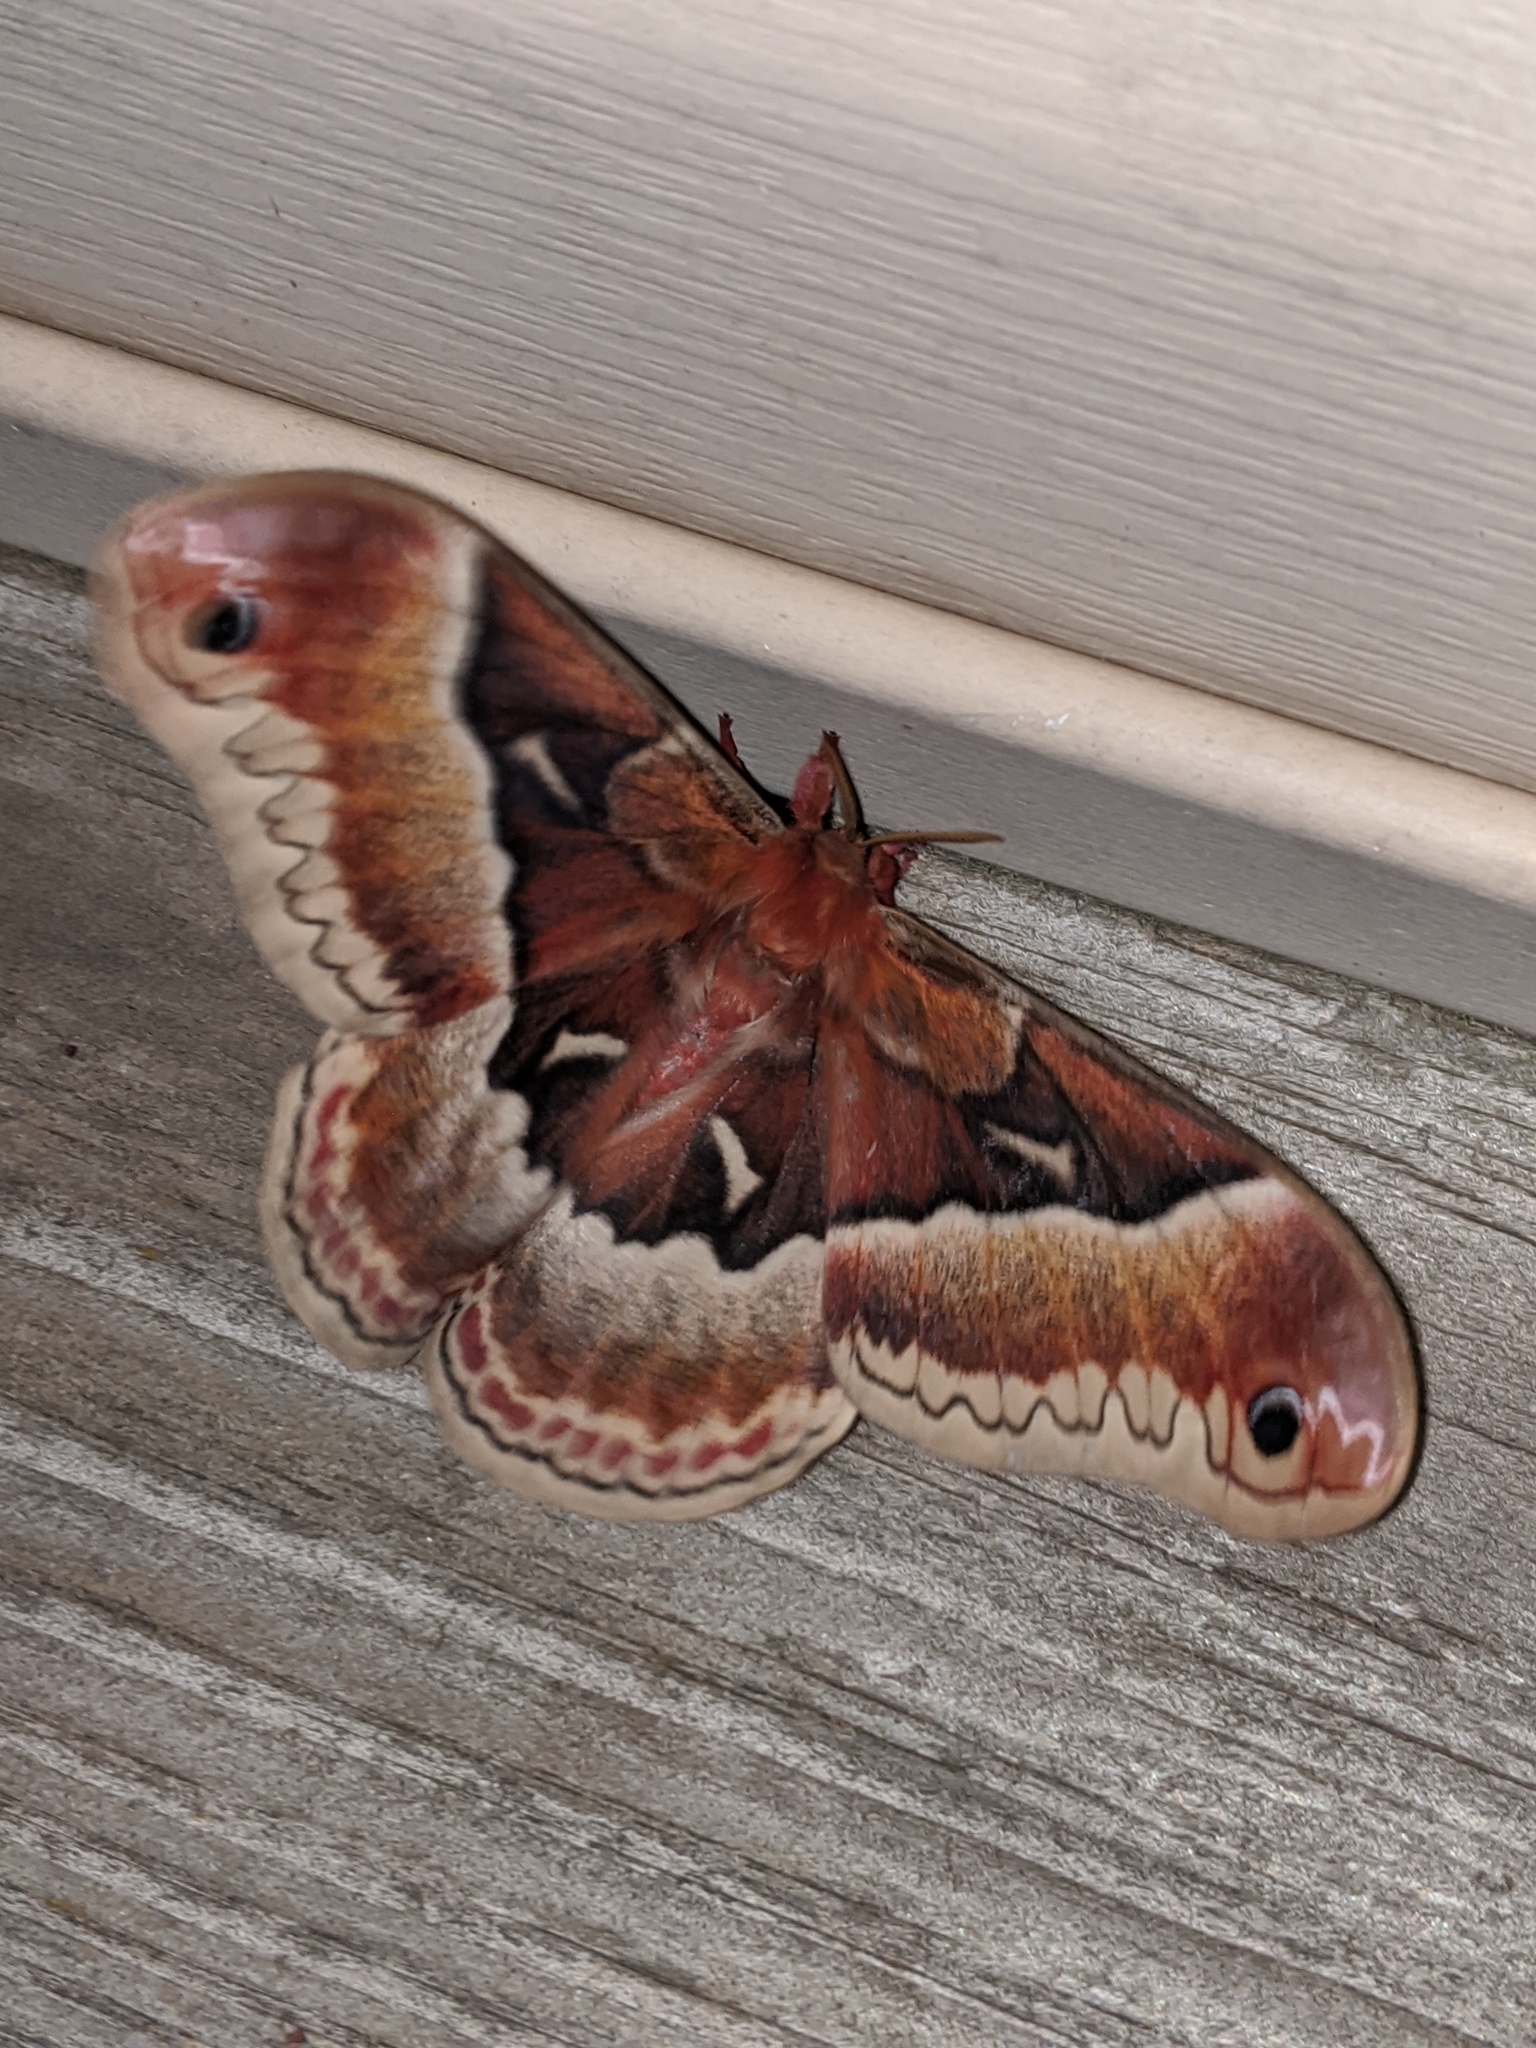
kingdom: Animalia
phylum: Arthropoda
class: Insecta
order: Lepidoptera
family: Saturniidae
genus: Callosamia
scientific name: Callosamia promethea
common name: Promethea silkmoth
